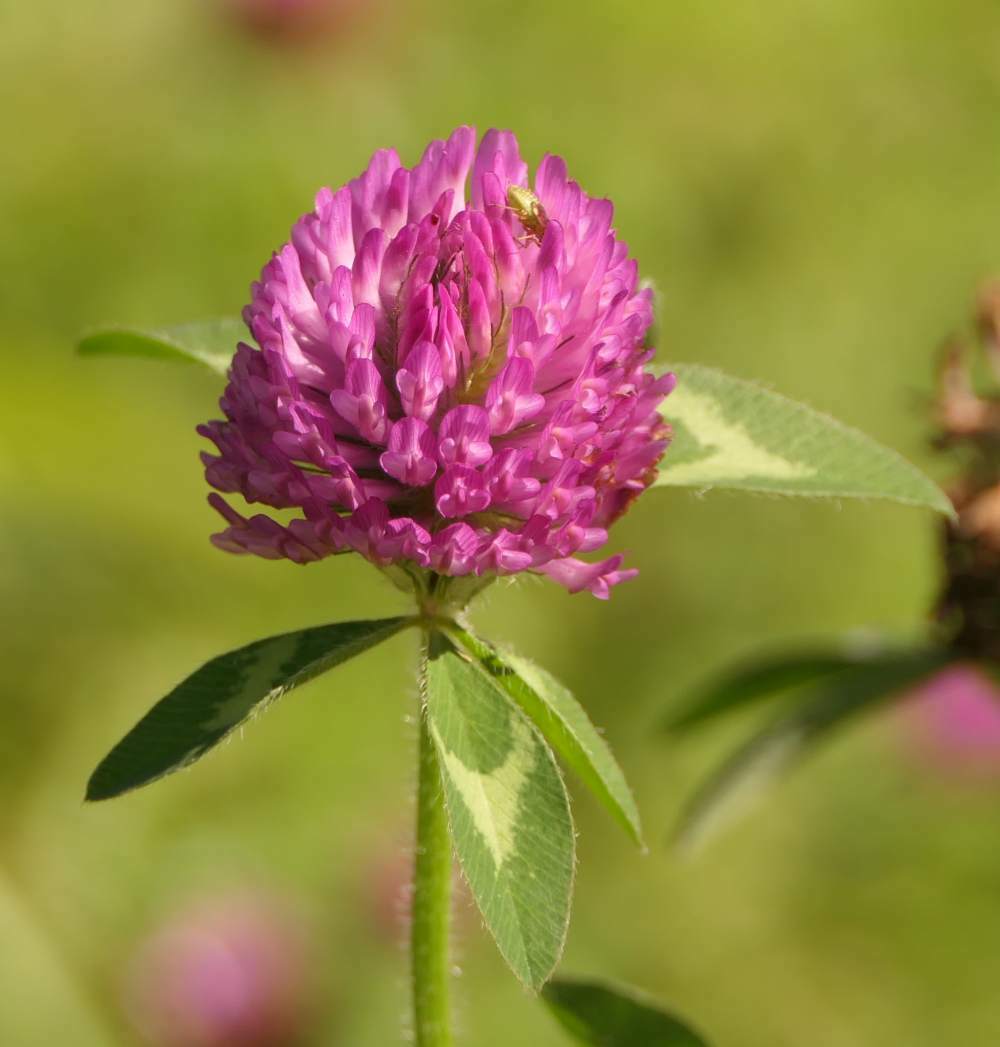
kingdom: Plantae
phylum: Tracheophyta
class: Magnoliopsida
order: Fabales
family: Fabaceae
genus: Trifolium
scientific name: Trifolium pratense
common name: Red clover
